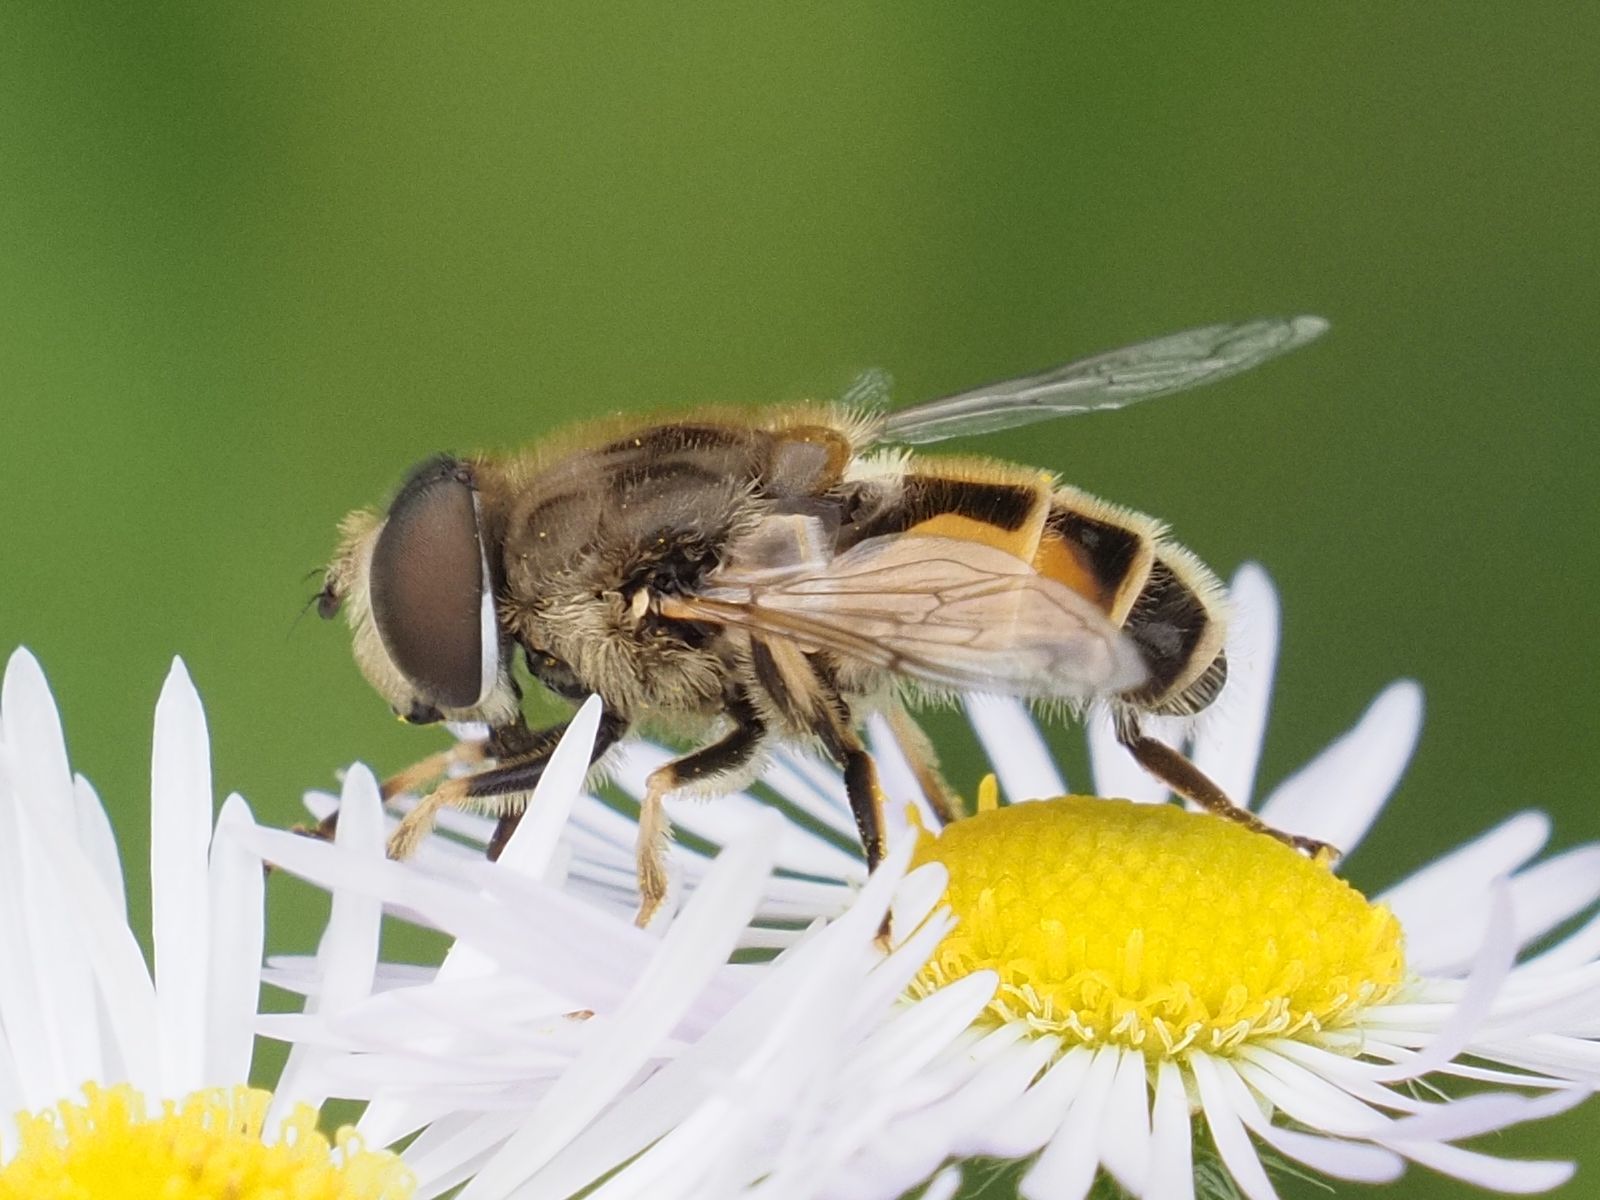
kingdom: Animalia
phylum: Arthropoda
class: Insecta
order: Diptera
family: Syrphidae
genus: Eristalis
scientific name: Eristalis arbustorum
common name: Hover fly
